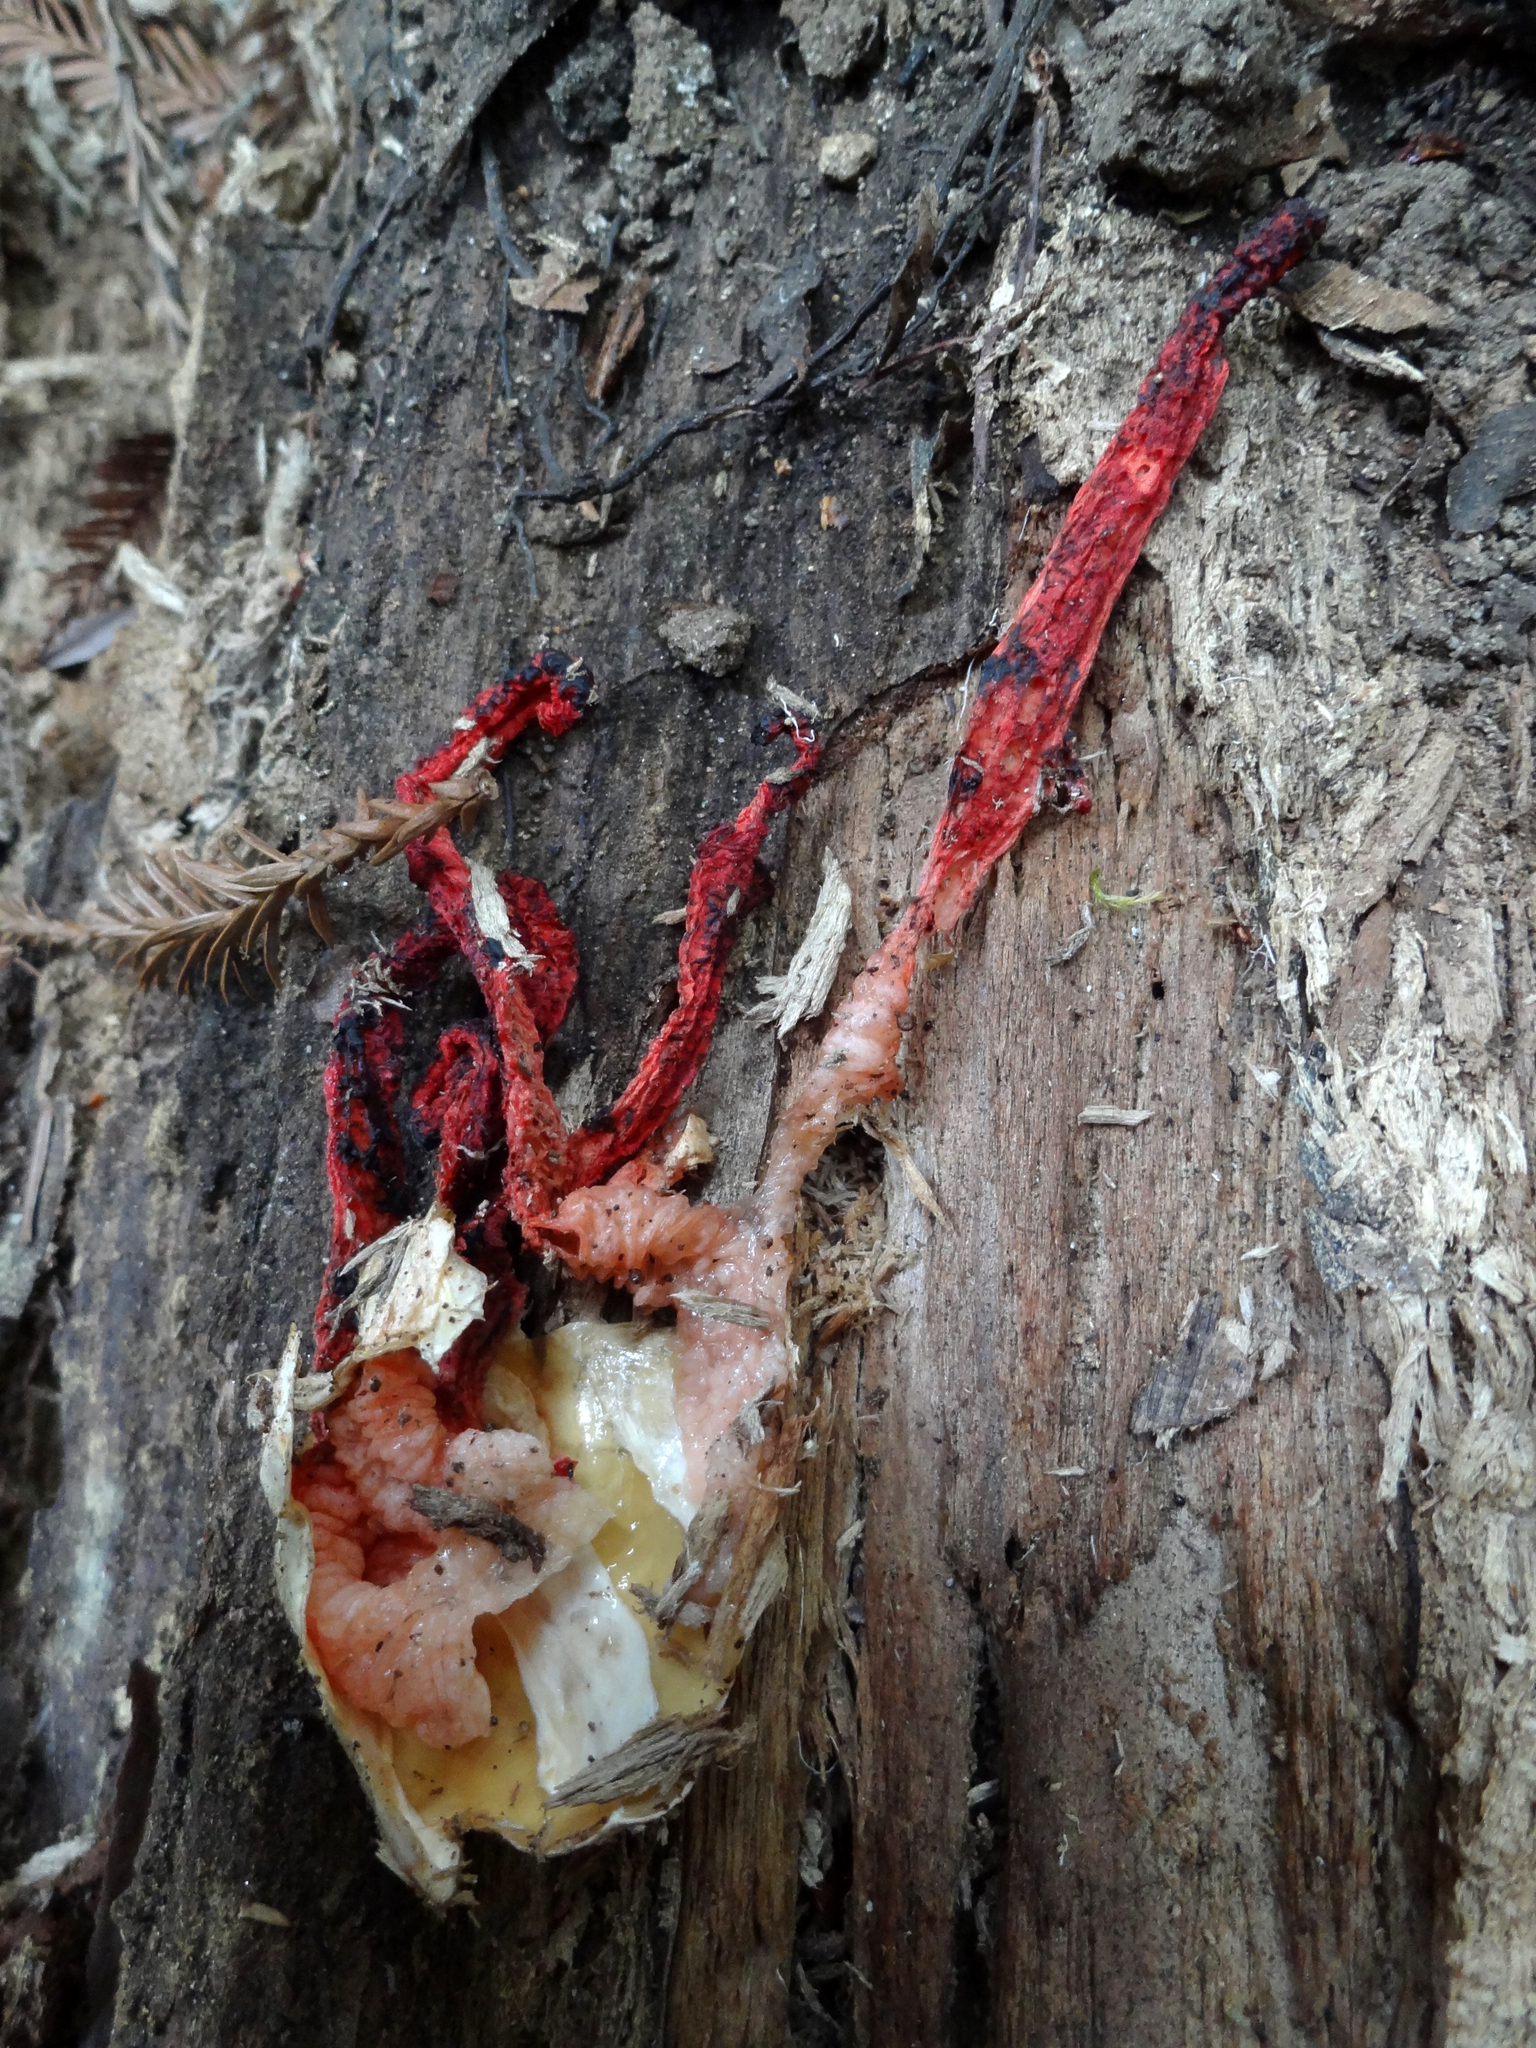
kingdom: Fungi
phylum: Basidiomycota
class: Agaricomycetes
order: Phallales
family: Phallaceae
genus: Clathrus
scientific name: Clathrus archeri
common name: Devil's fingers
